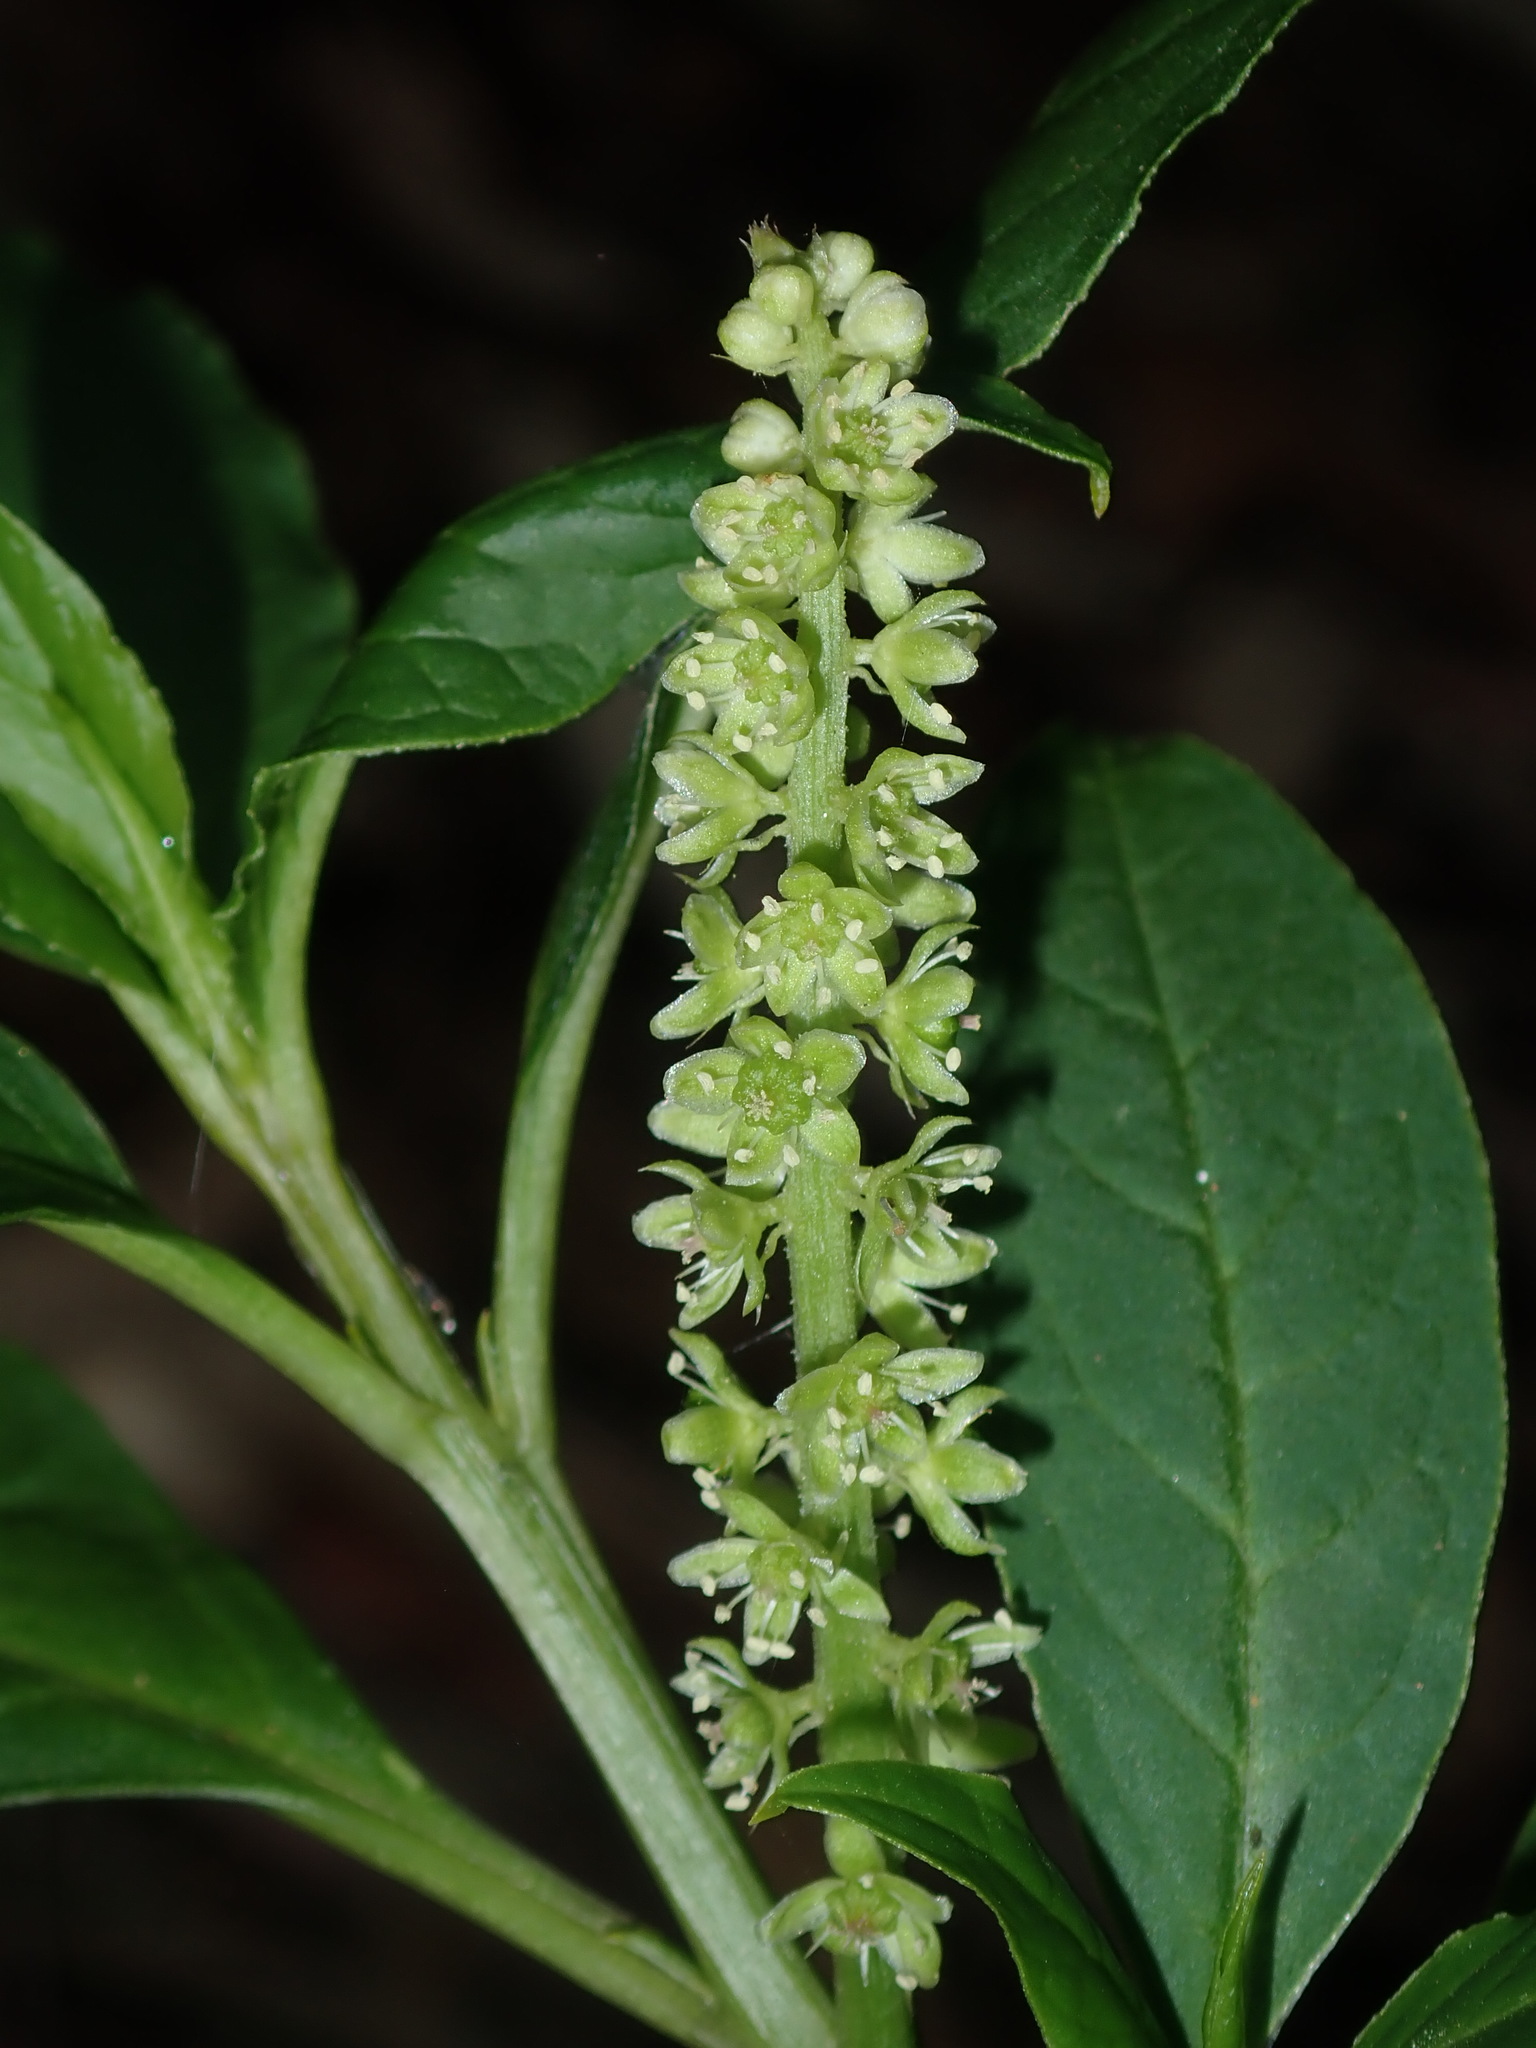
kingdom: Plantae
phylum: Tracheophyta
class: Magnoliopsida
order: Caryophyllales
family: Phytolaccaceae
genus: Phytolacca
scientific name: Phytolacca icosandra
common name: Button pokeweed
